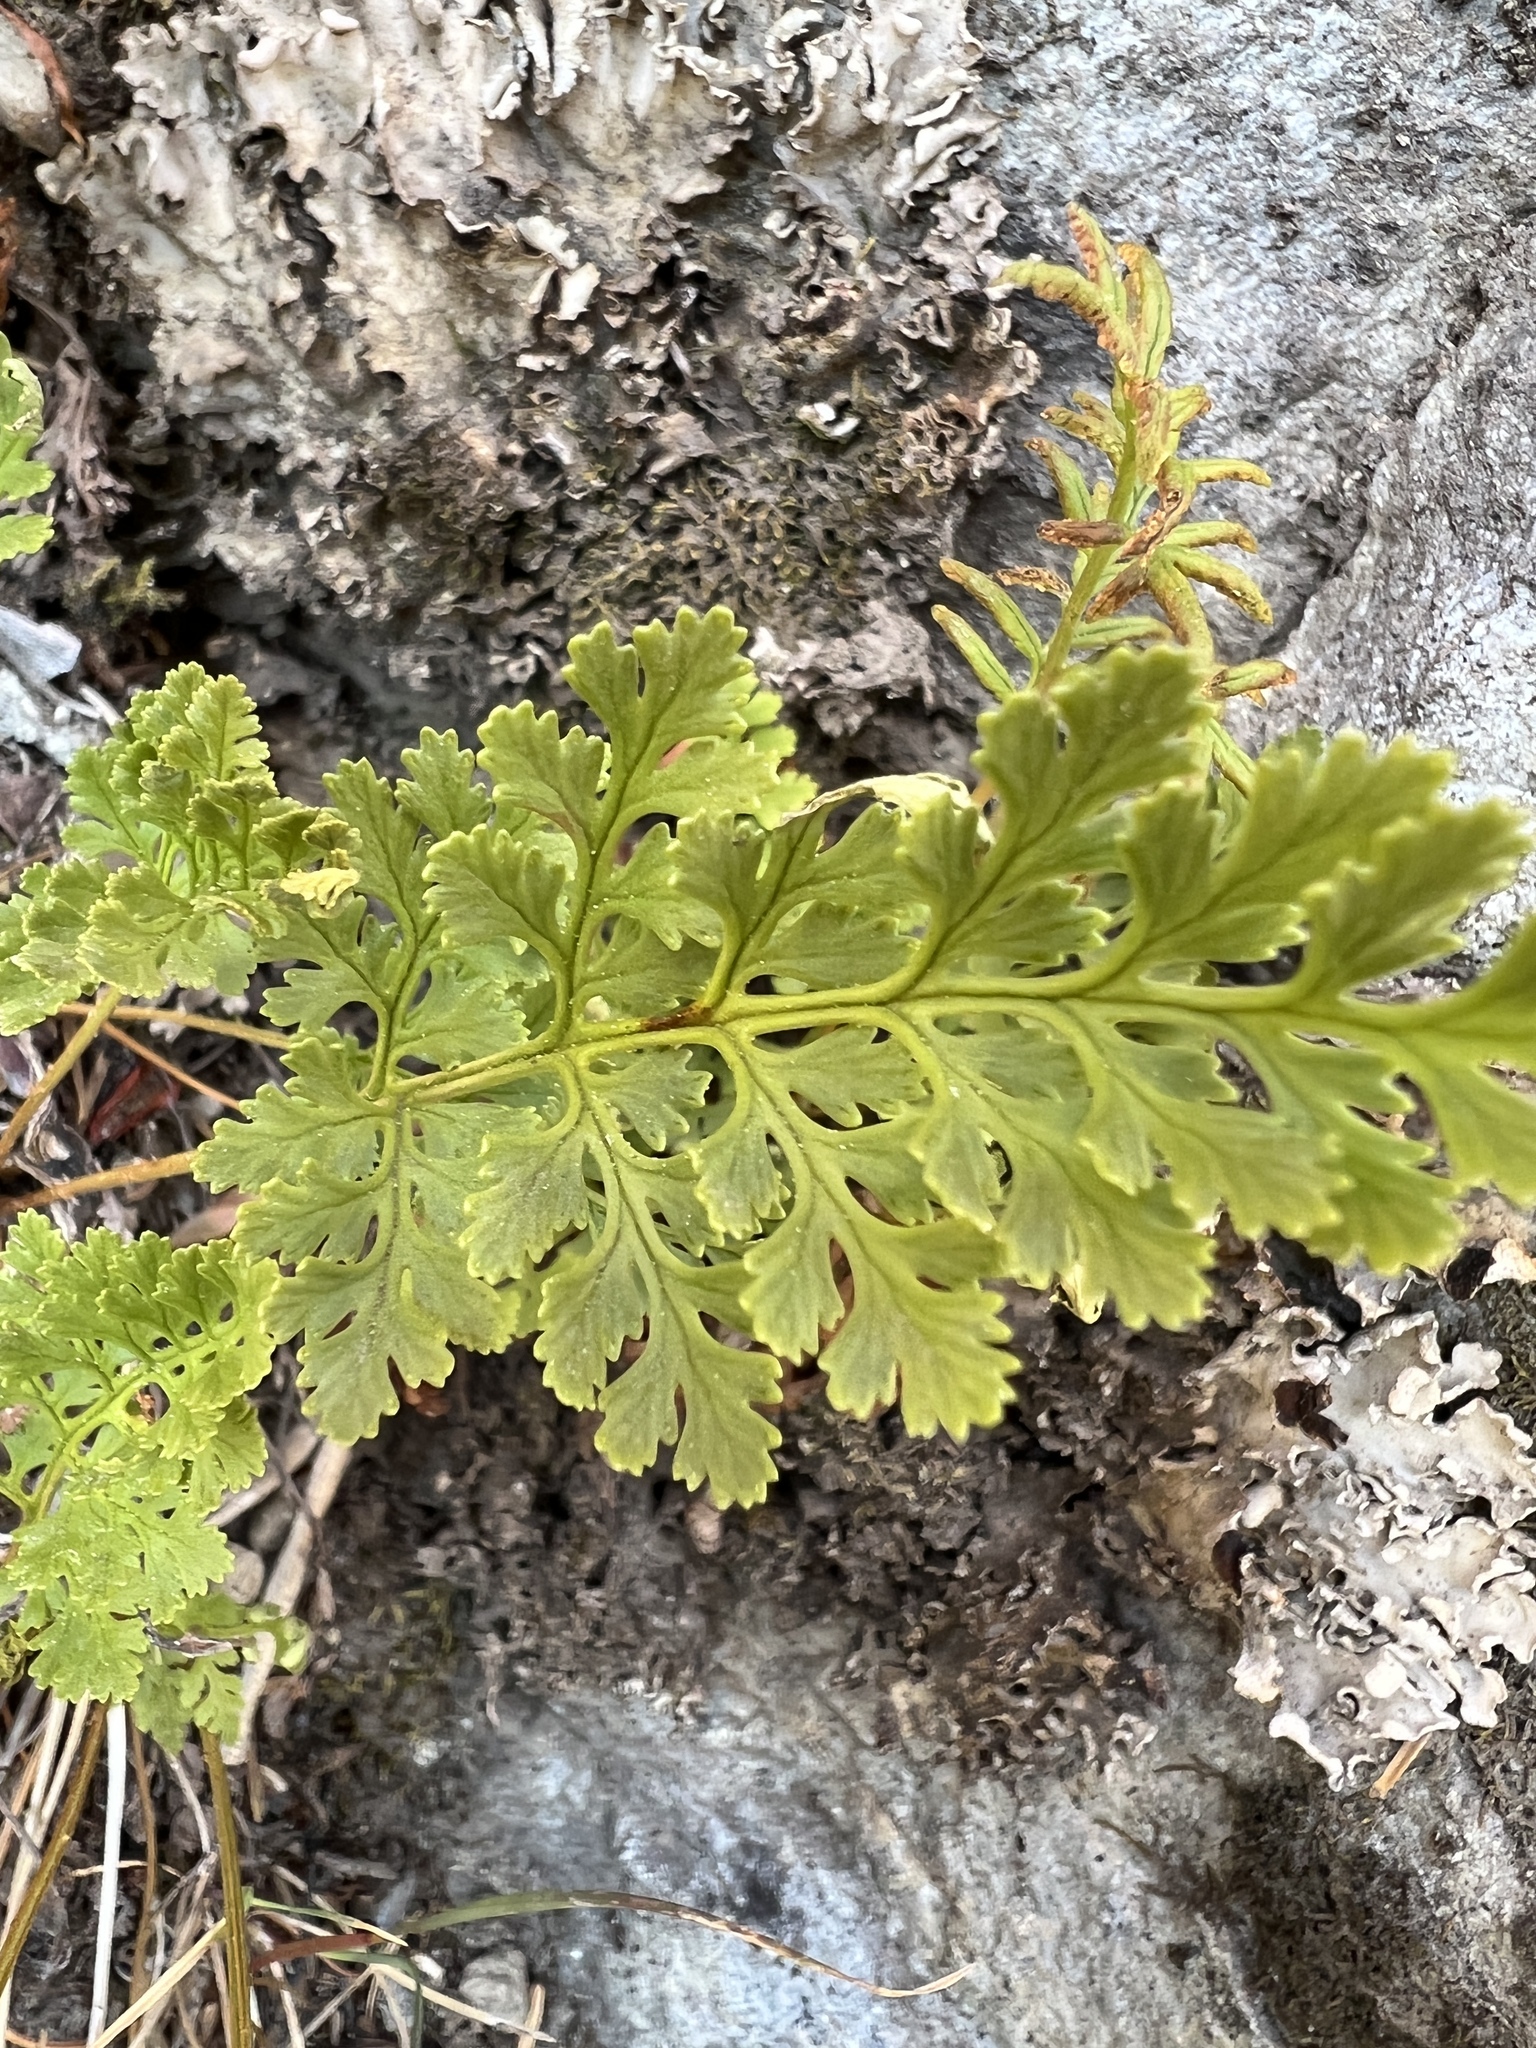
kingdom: Plantae
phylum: Tracheophyta
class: Polypodiopsida
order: Polypodiales
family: Pteridaceae
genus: Cryptogramma
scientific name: Cryptogramma cascadensis
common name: Cascade parsley fern
